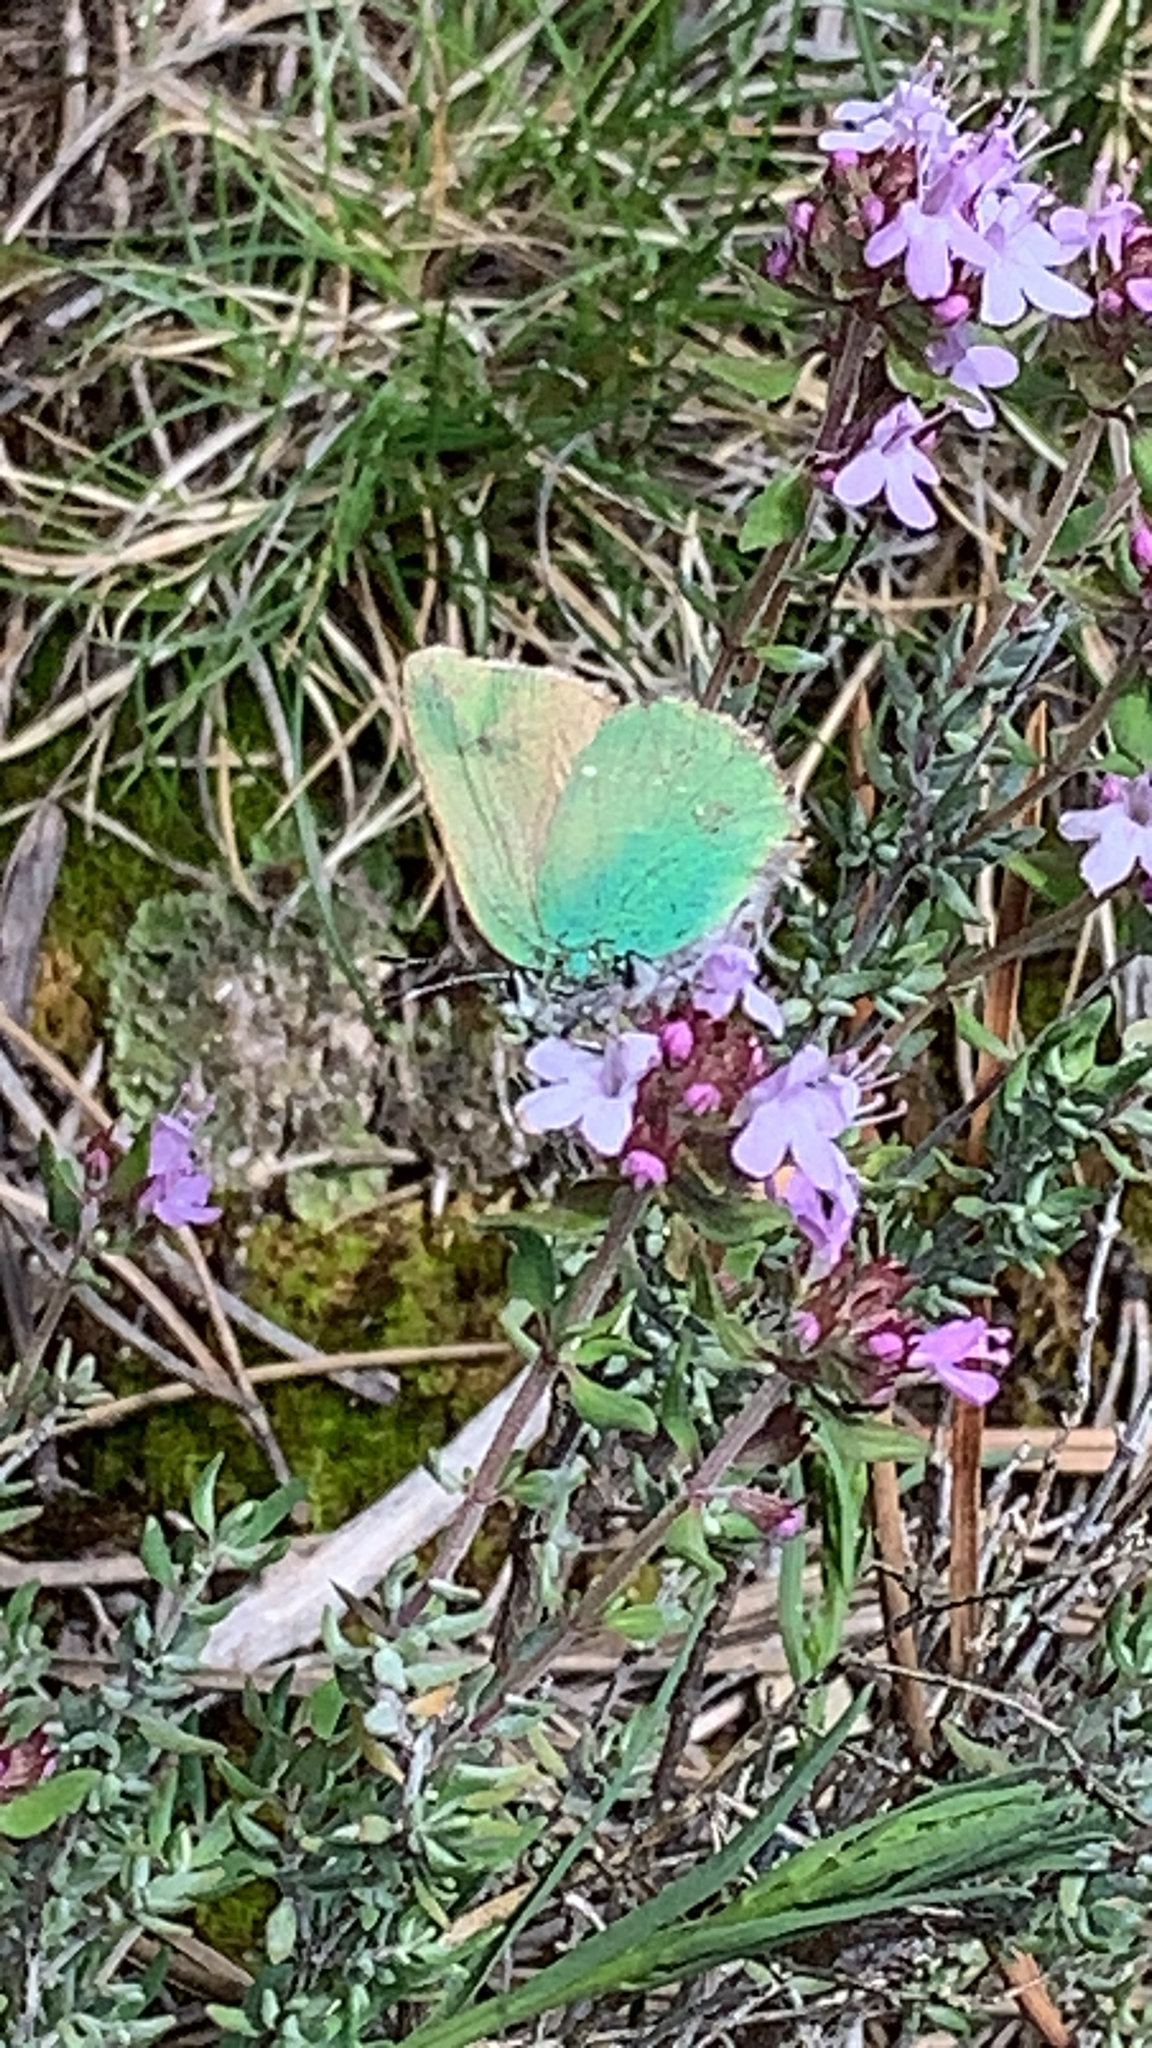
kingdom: Animalia
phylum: Arthropoda
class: Insecta
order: Lepidoptera
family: Lycaenidae
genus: Callophrys
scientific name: Callophrys rubi
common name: Green hairstreak
